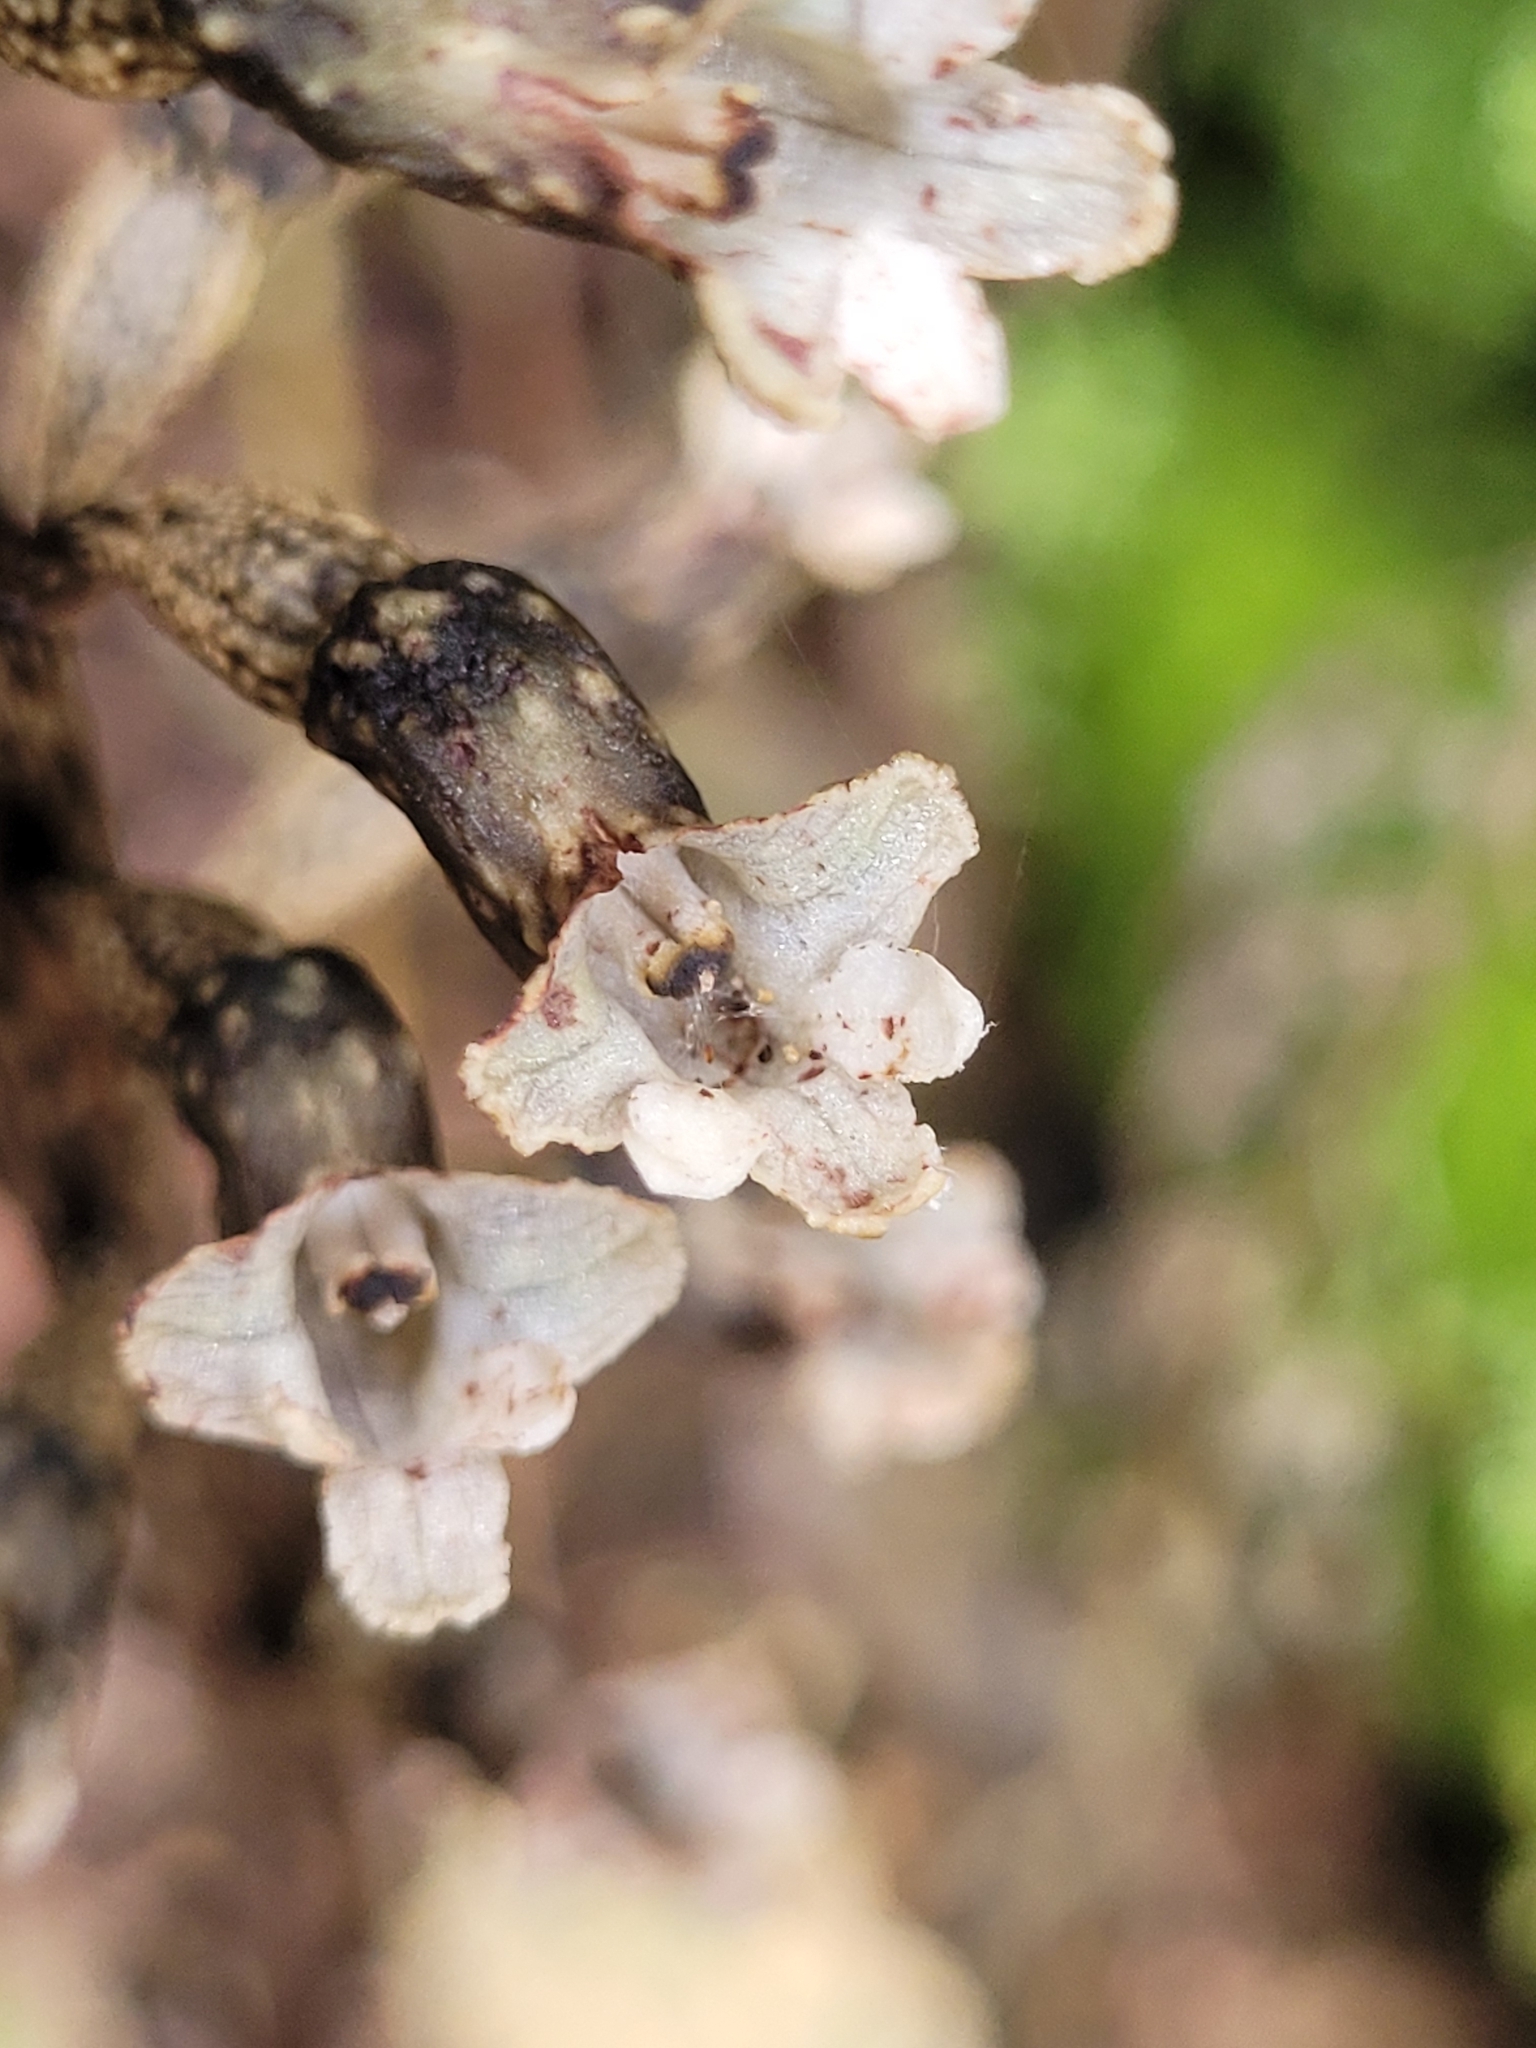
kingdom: Plantae
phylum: Tracheophyta
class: Liliopsida
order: Asparagales
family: Orchidaceae
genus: Gastrodia
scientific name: Gastrodia cunninghamii
